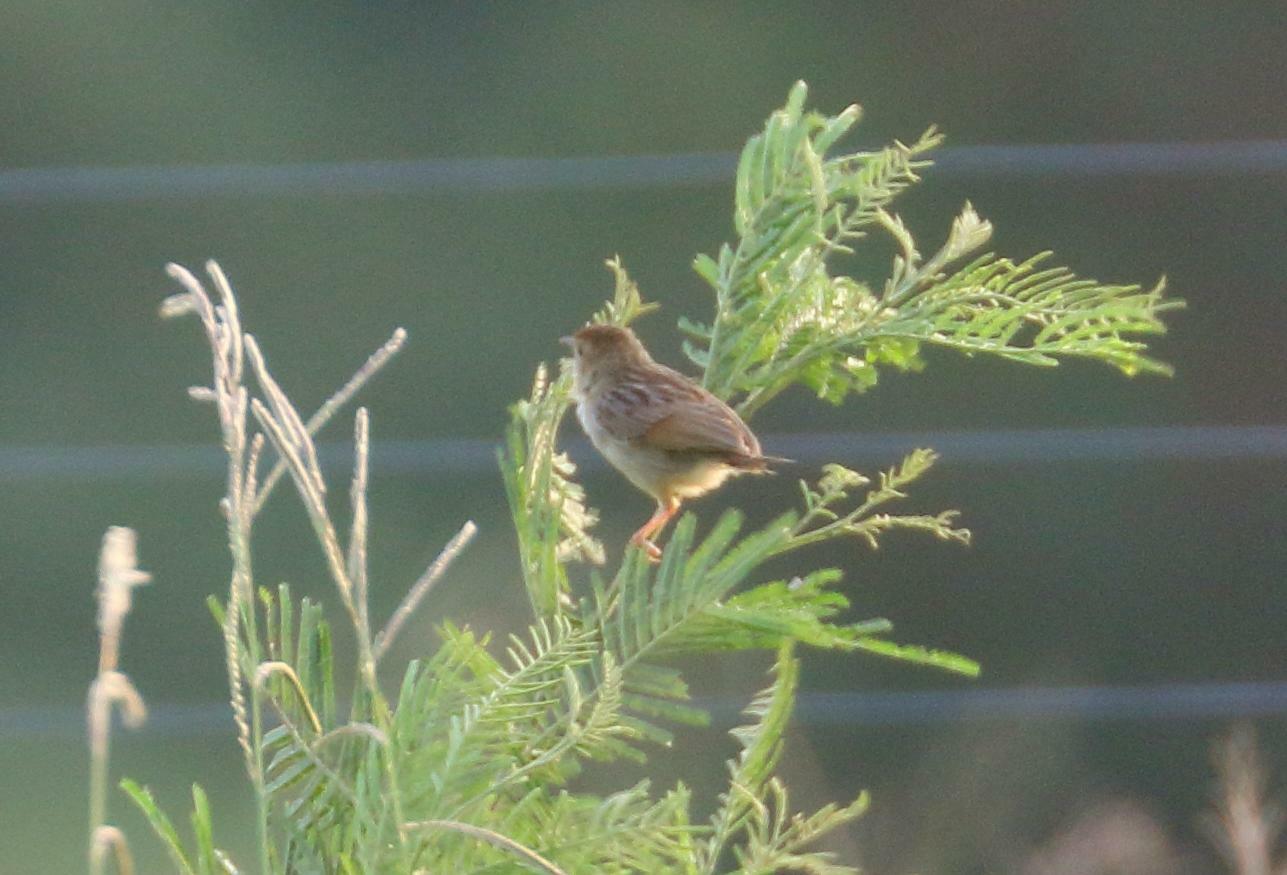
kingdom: Animalia
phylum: Chordata
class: Aves
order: Passeriformes
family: Cisticolidae
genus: Cisticola
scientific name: Cisticola lais
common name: Wailing cisticola
